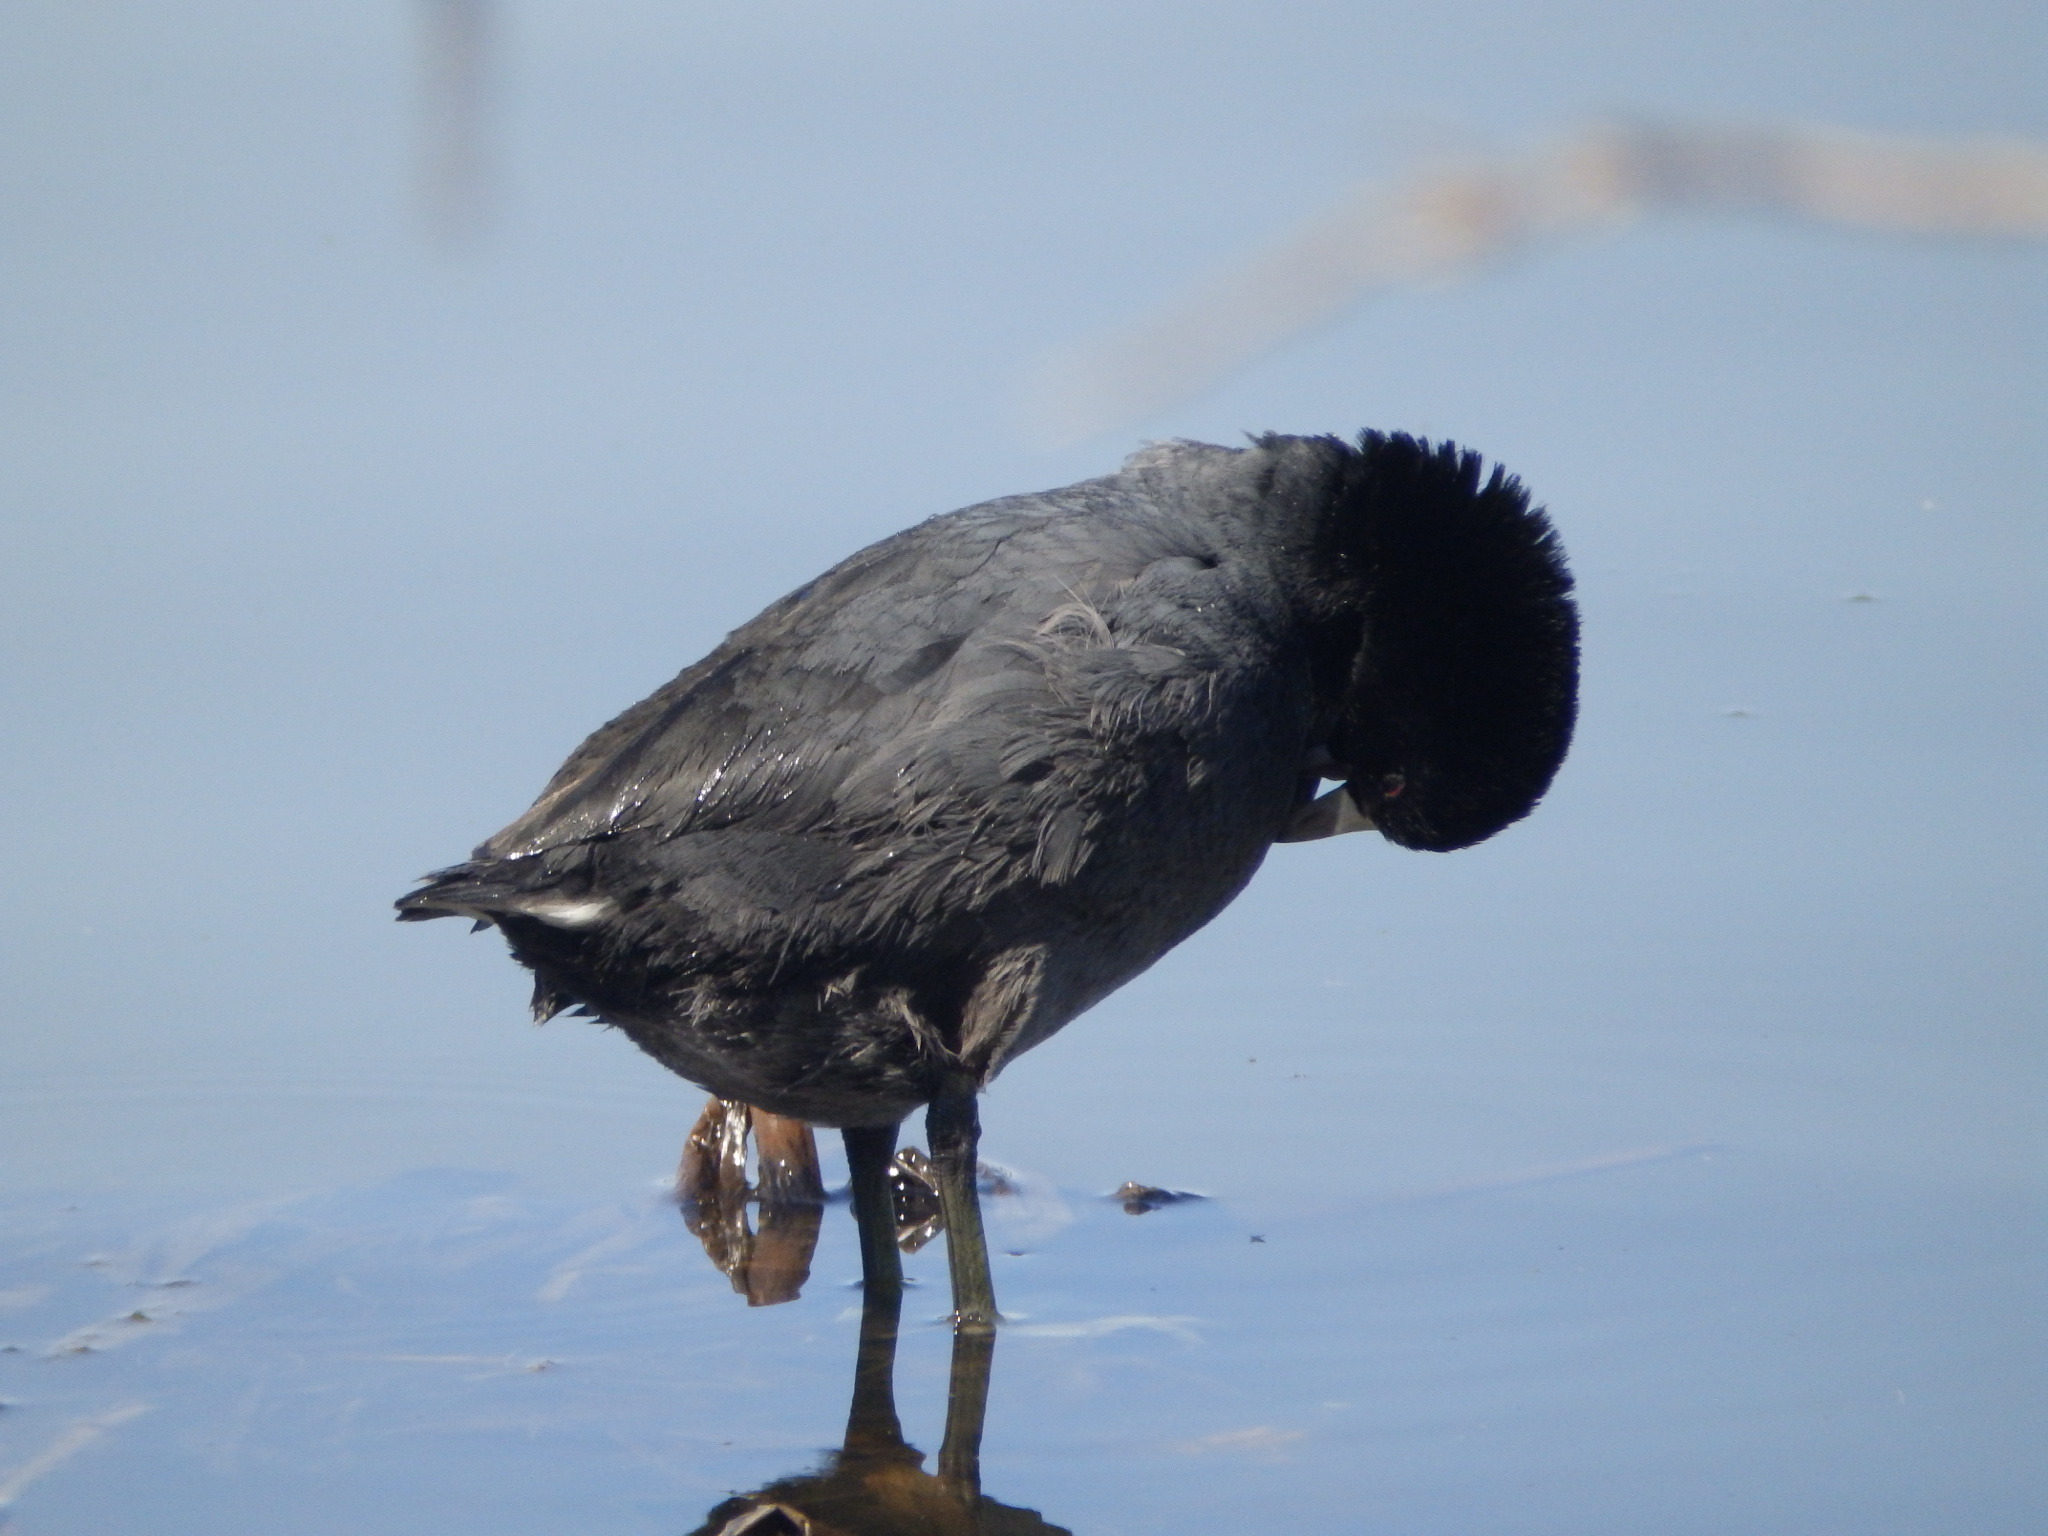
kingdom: Animalia
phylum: Chordata
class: Aves
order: Gruiformes
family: Rallidae
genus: Fulica
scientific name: Fulica americana
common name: American coot
